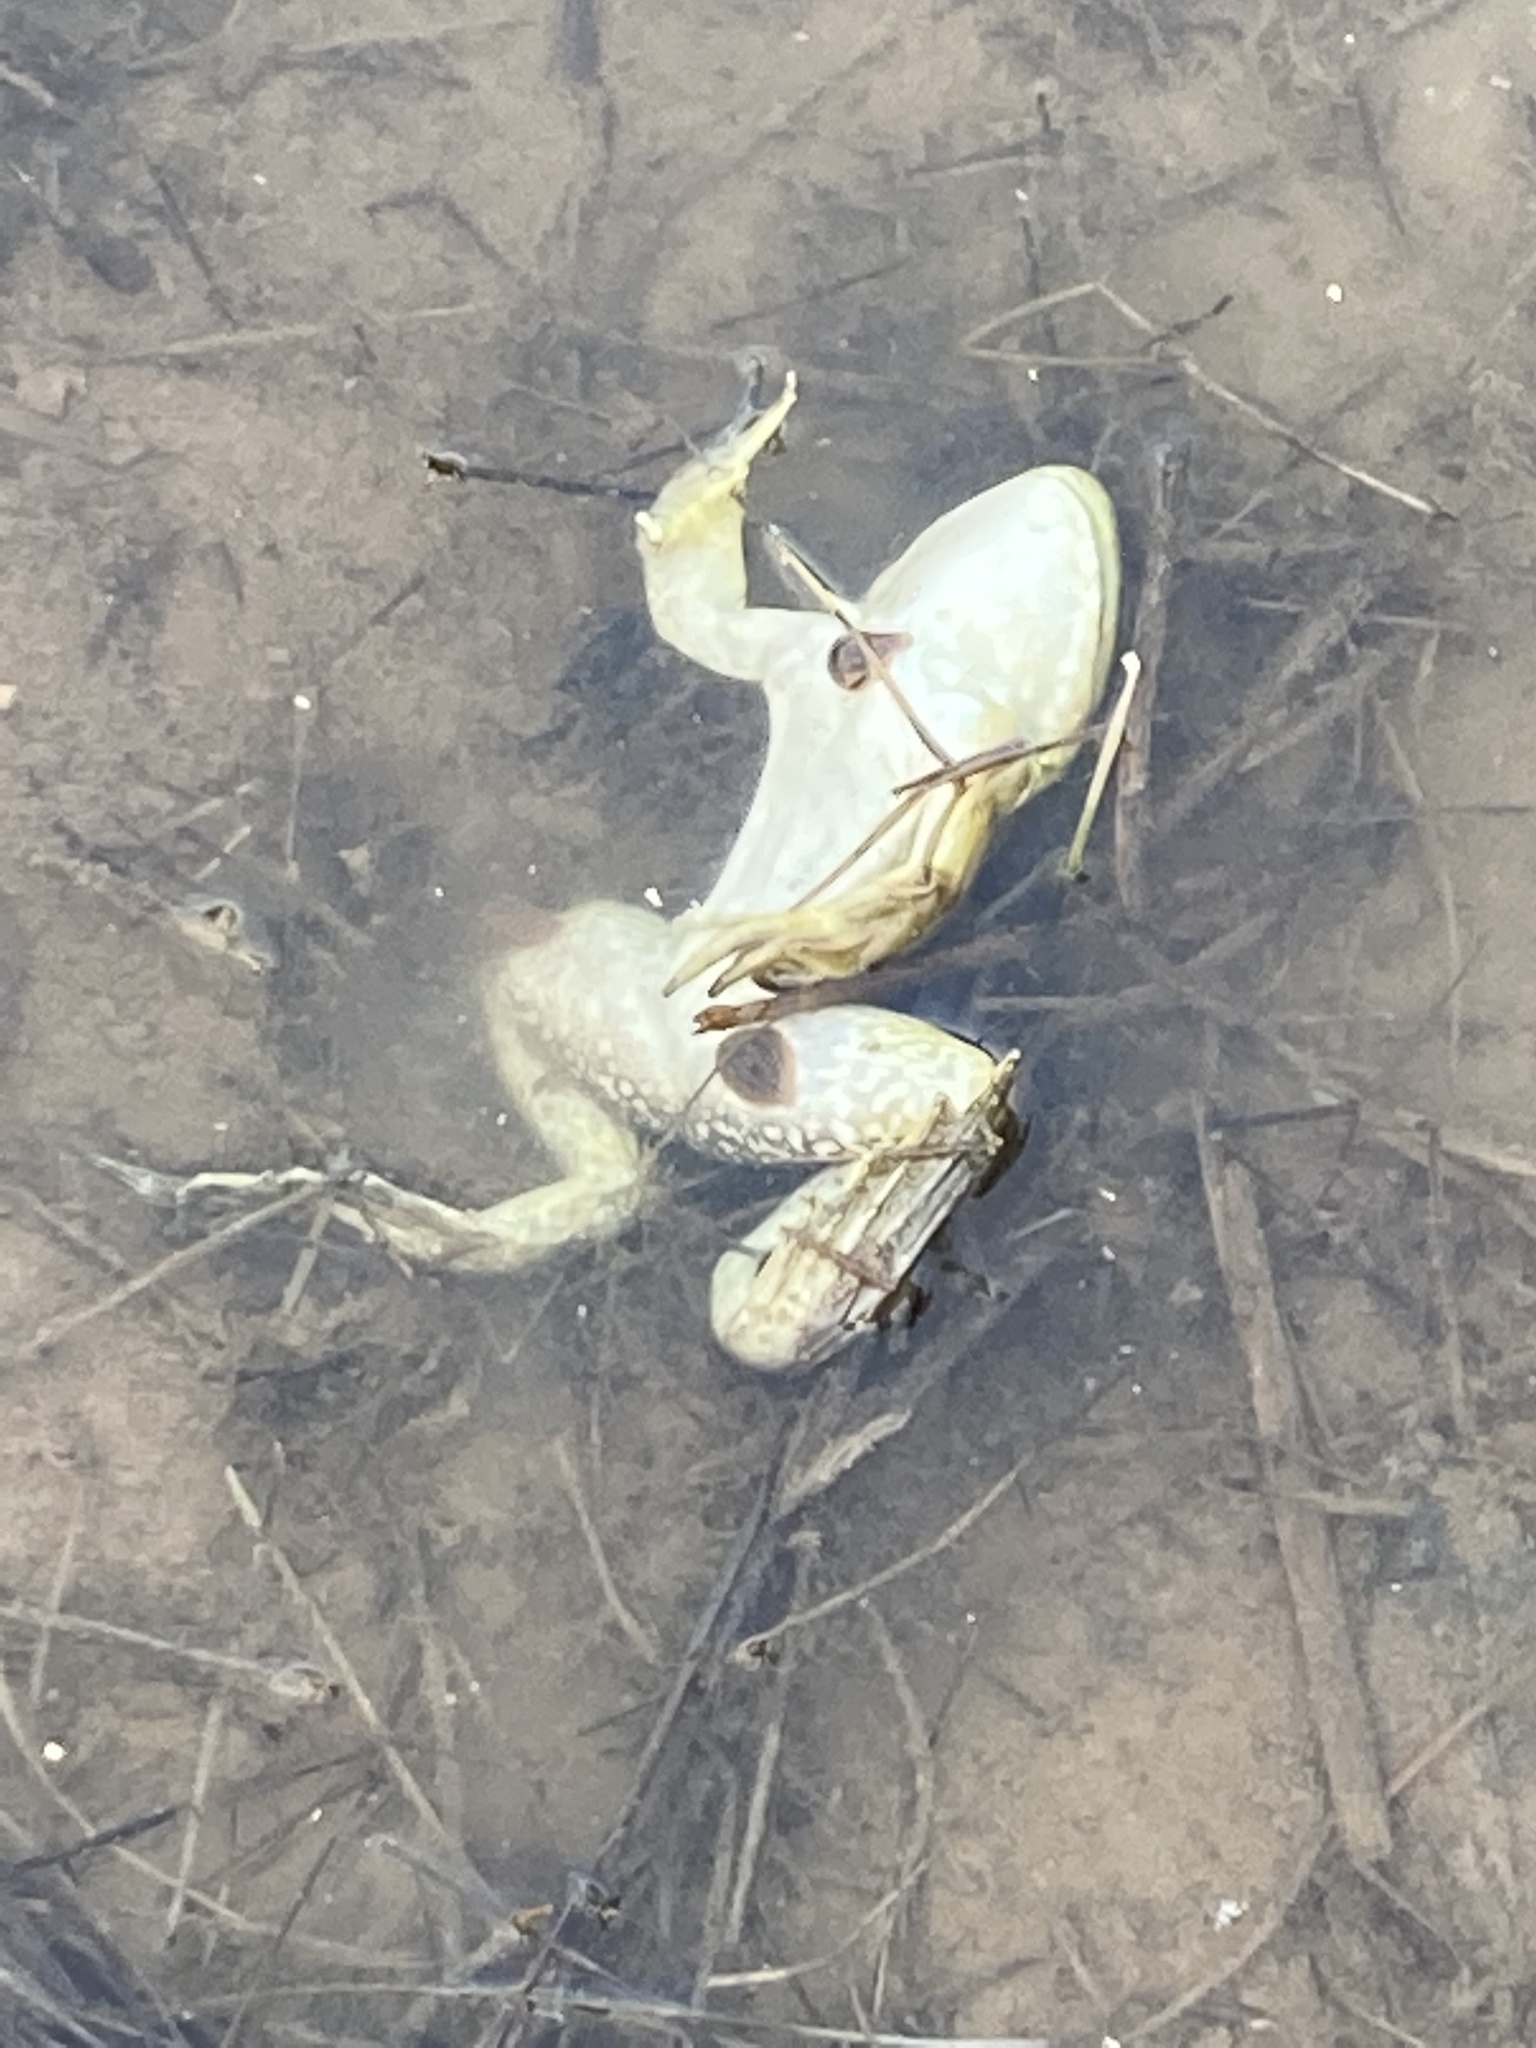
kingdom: Animalia
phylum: Chordata
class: Amphibia
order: Anura
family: Ranidae
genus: Lithobates
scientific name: Lithobates catesbeianus
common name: American bullfrog
